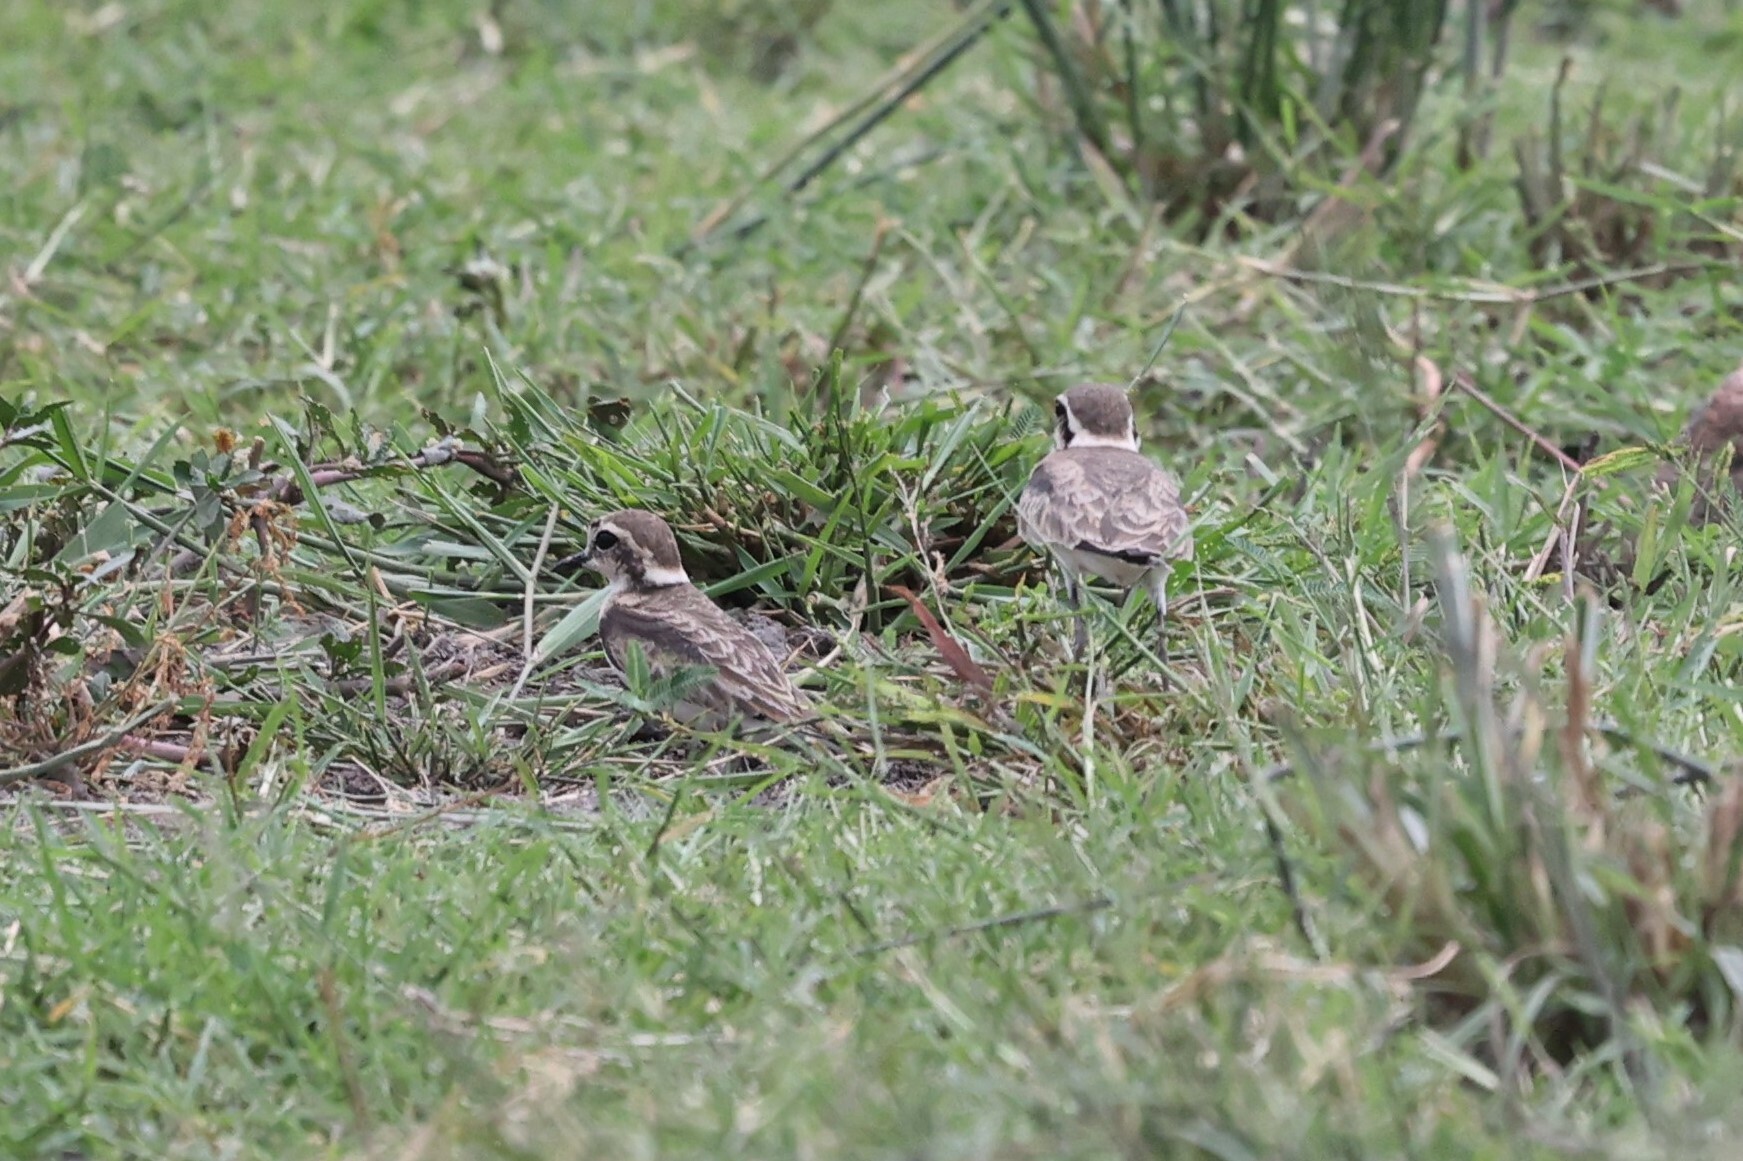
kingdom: Animalia
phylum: Chordata
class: Aves
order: Charadriiformes
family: Charadriidae
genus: Anarhynchus
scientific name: Anarhynchus
